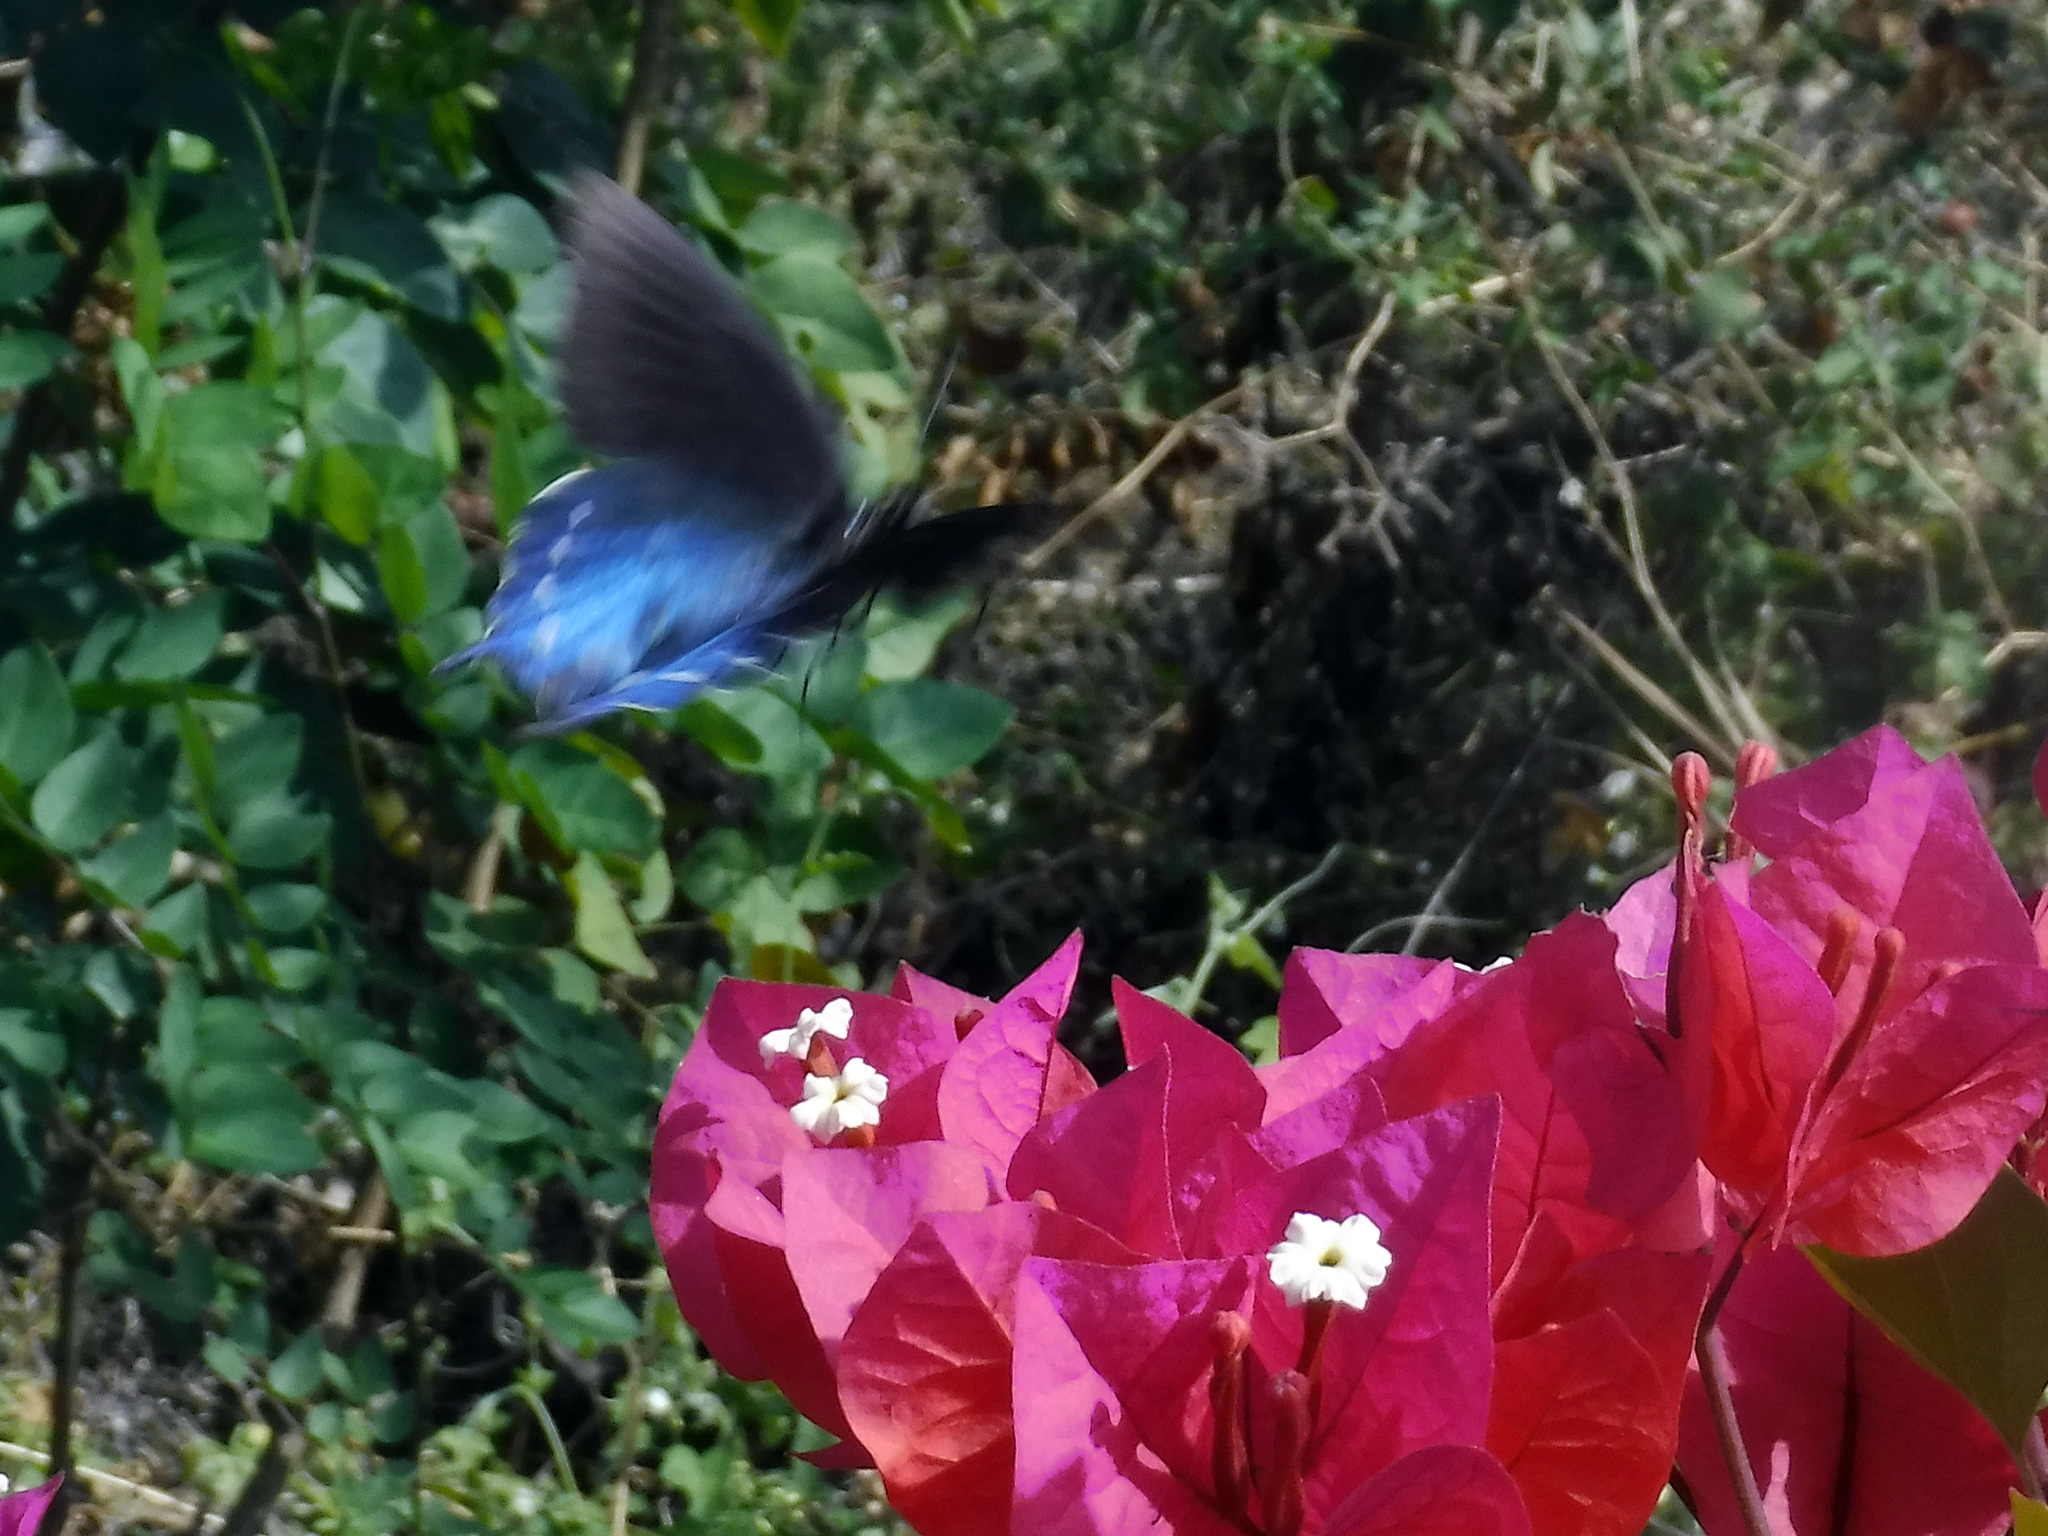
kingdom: Animalia
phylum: Arthropoda
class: Insecta
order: Lepidoptera
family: Papilionidae
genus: Battus
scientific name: Battus philenor
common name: Pipevine swallowtail
